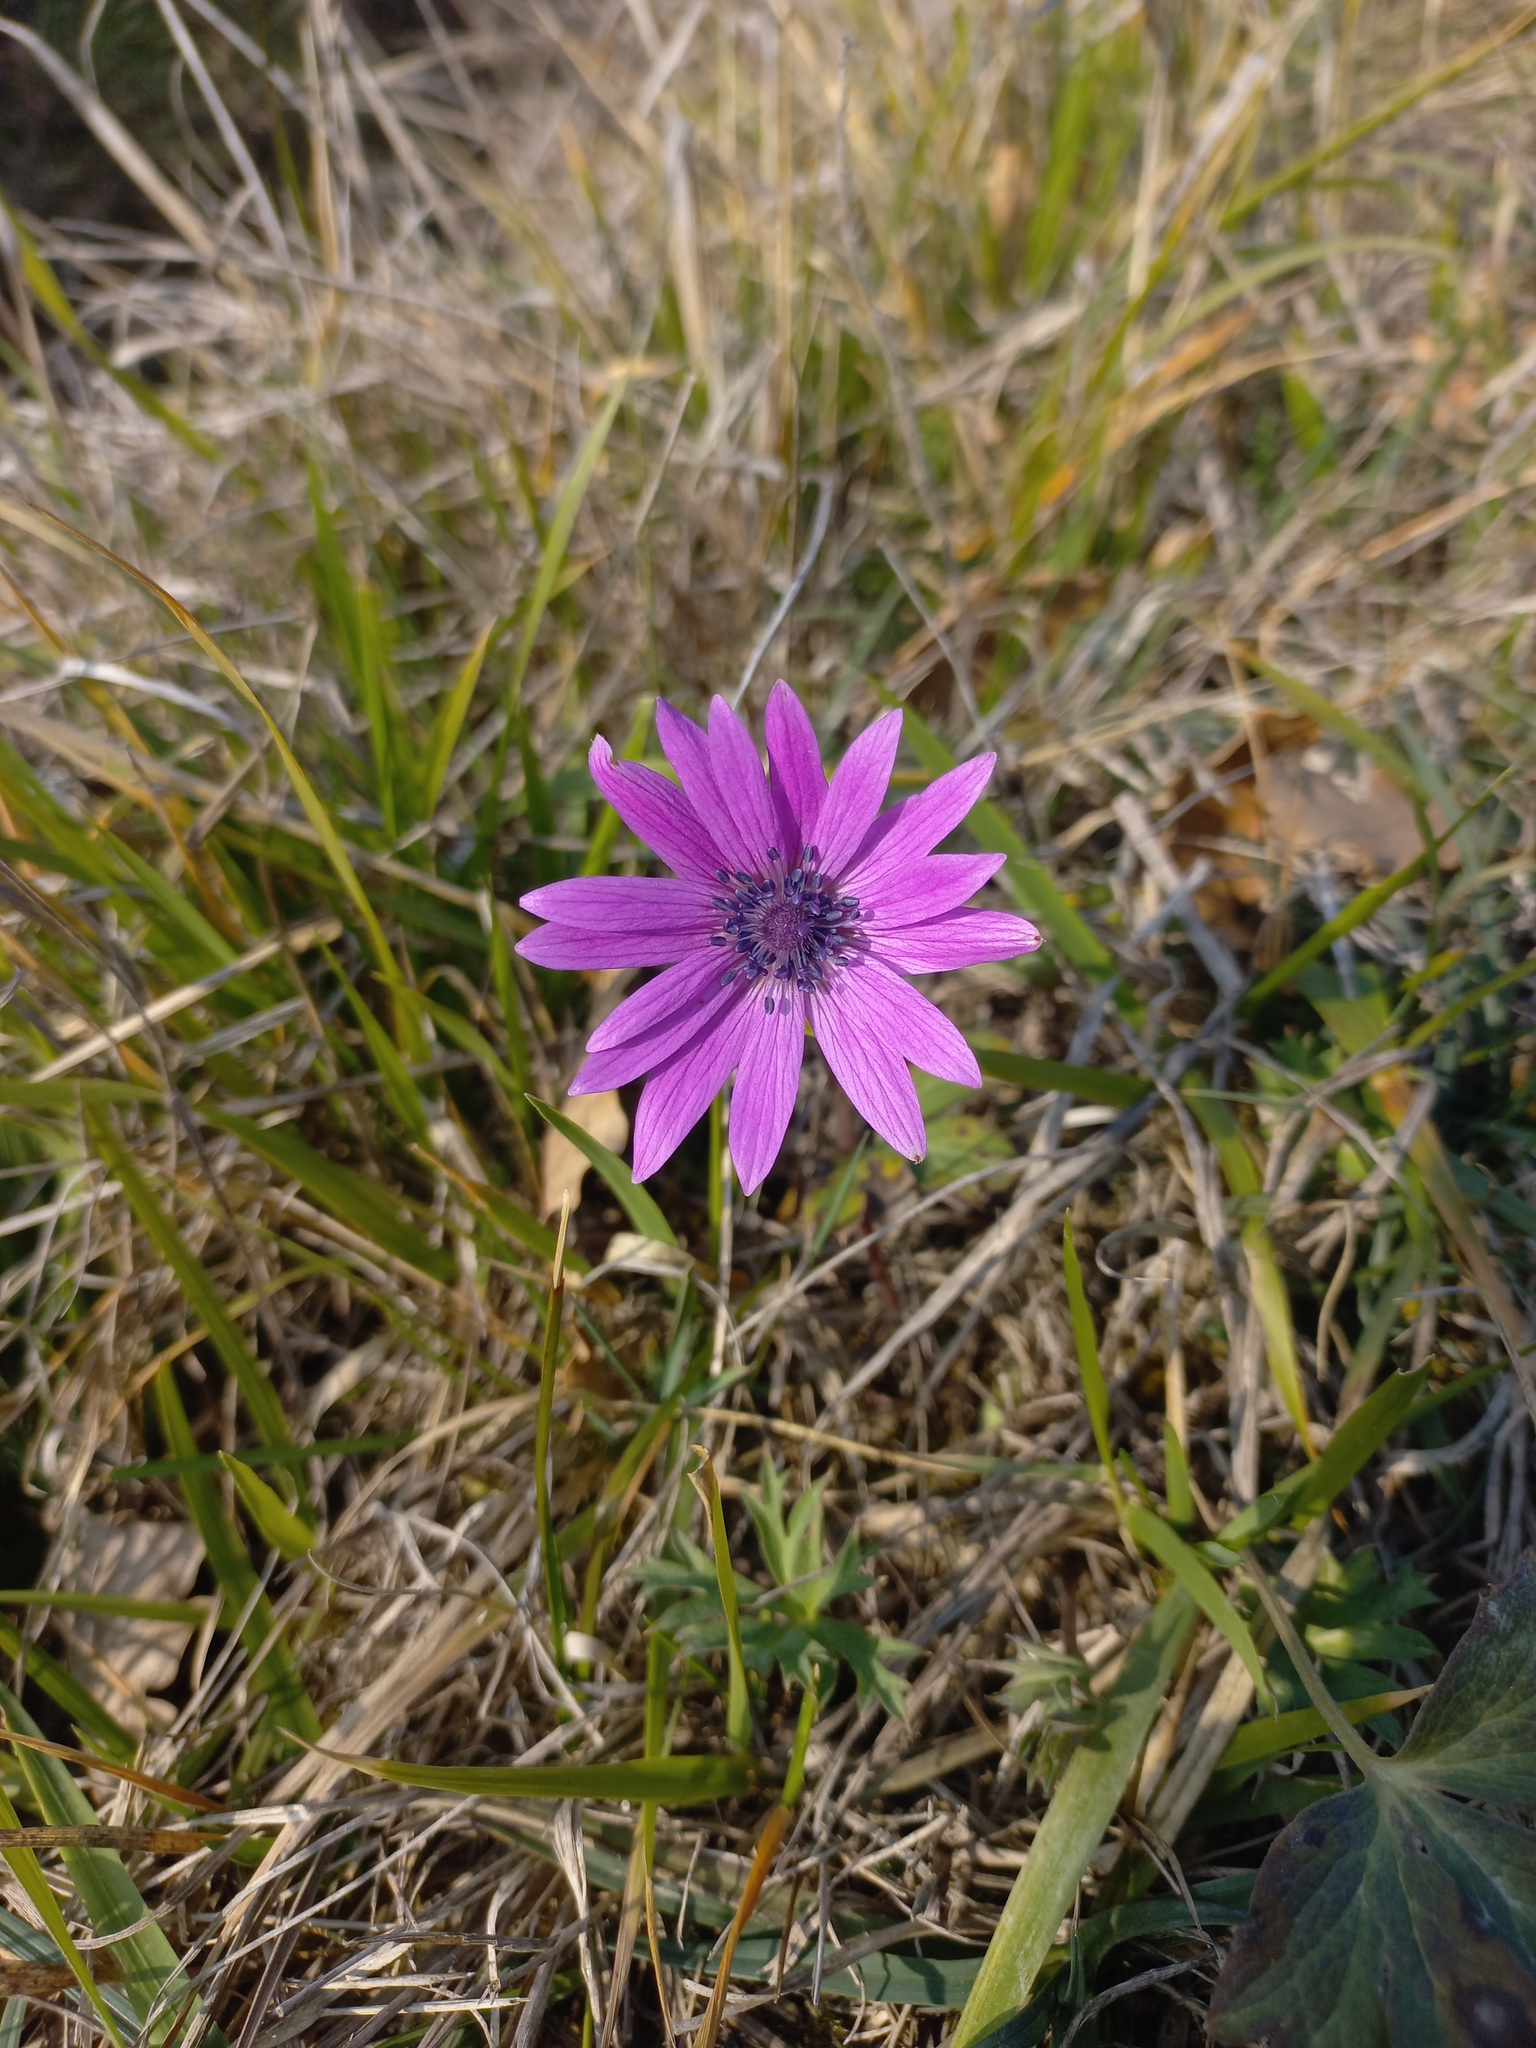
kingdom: Plantae
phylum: Tracheophyta
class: Magnoliopsida
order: Ranunculales
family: Ranunculaceae
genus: Anemone
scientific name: Anemone hortensis
